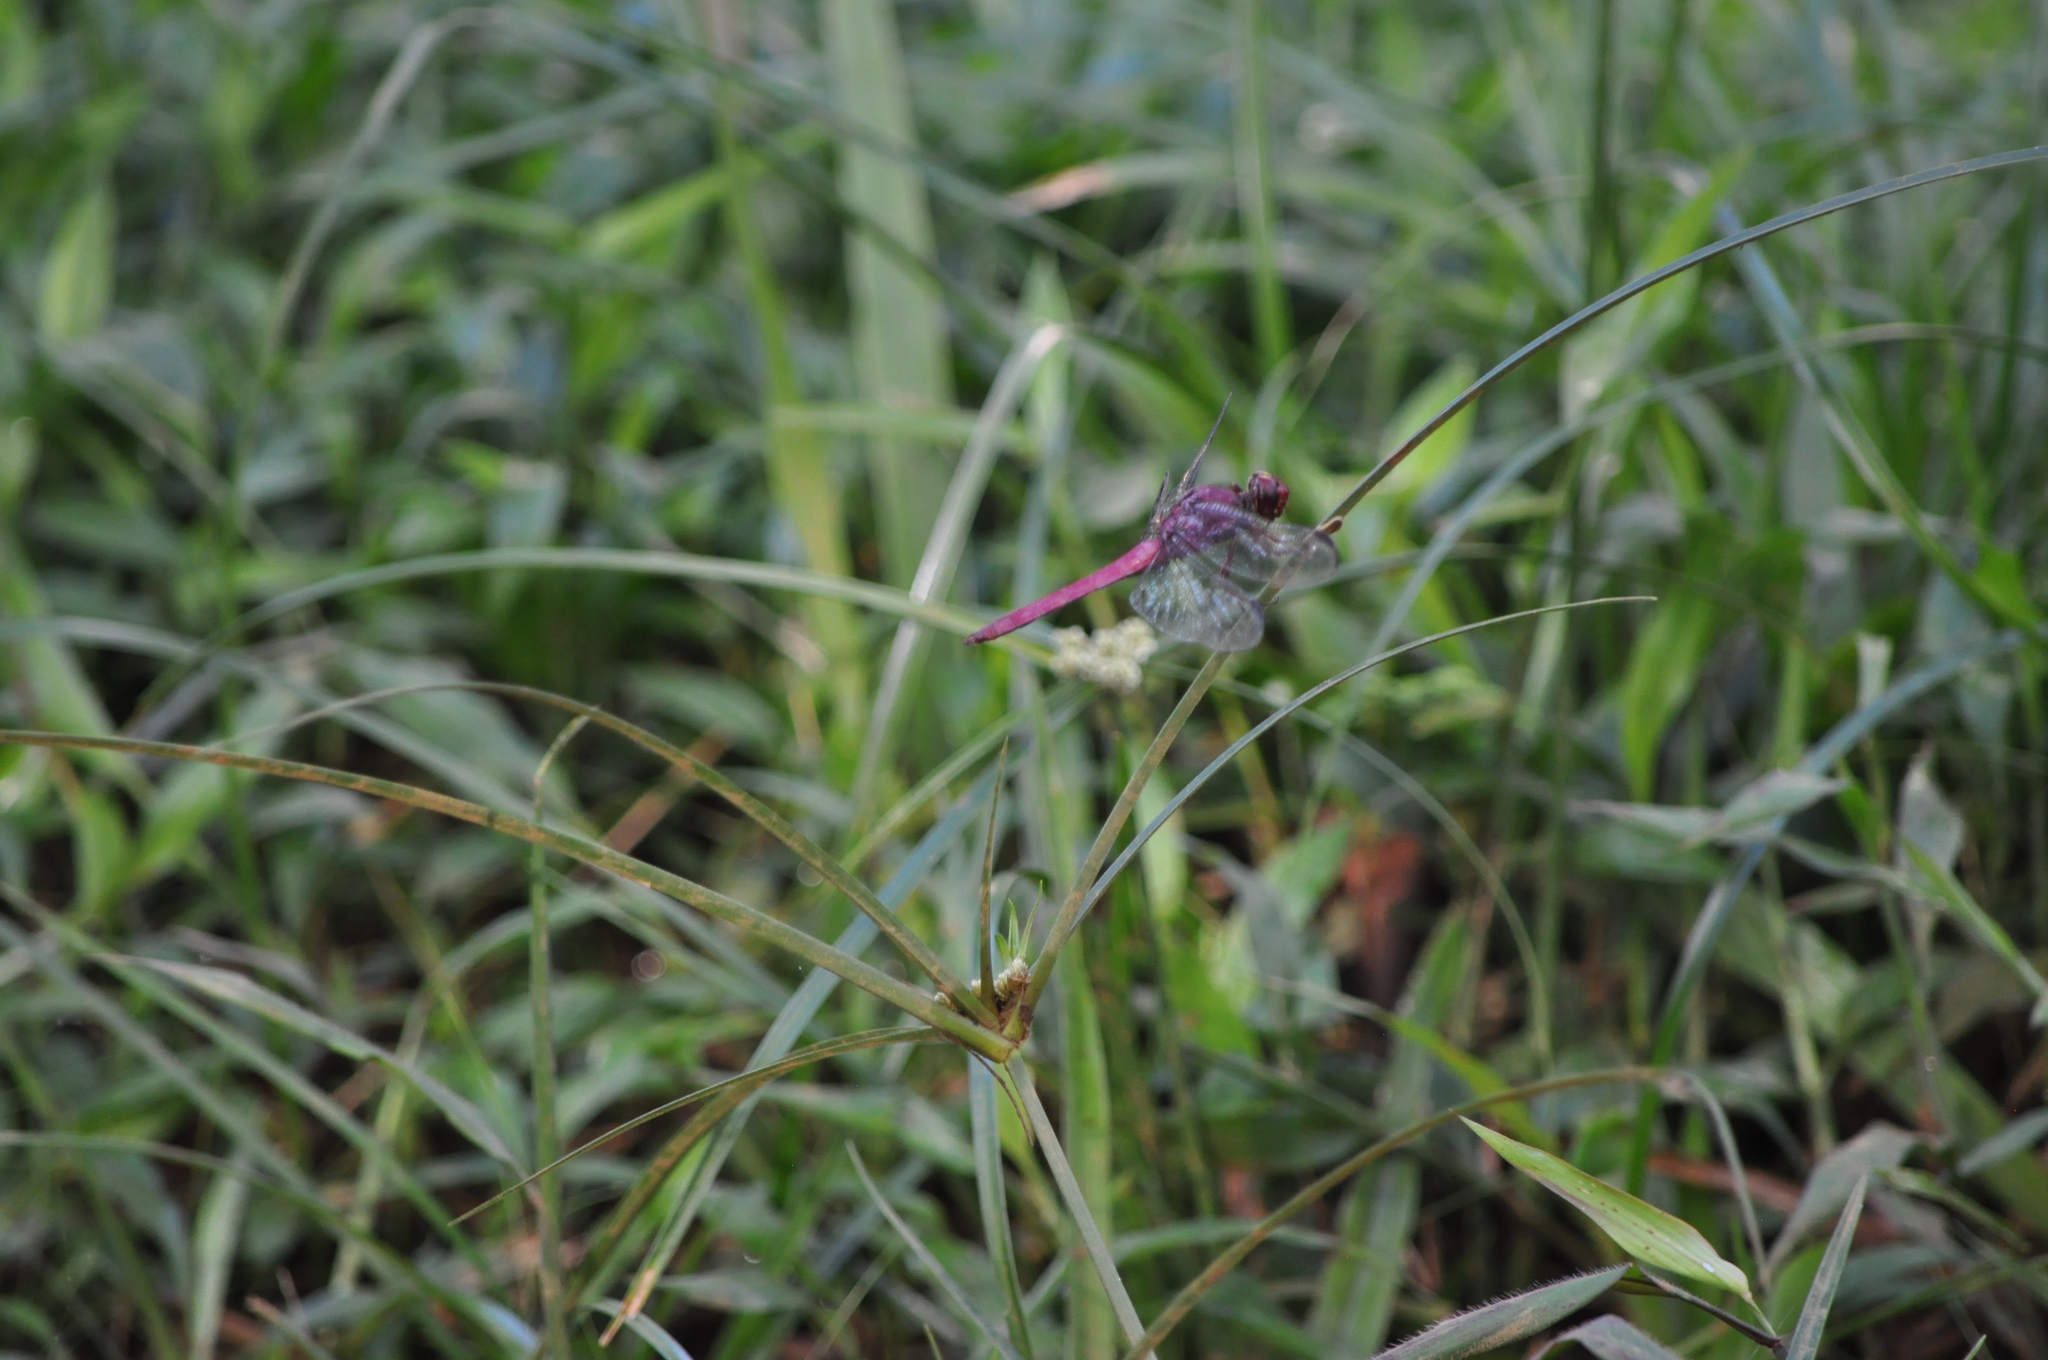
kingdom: Animalia
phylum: Arthropoda
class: Insecta
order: Odonata
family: Libellulidae
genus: Orthemis
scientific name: Orthemis discolor
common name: Carmine skimmer
